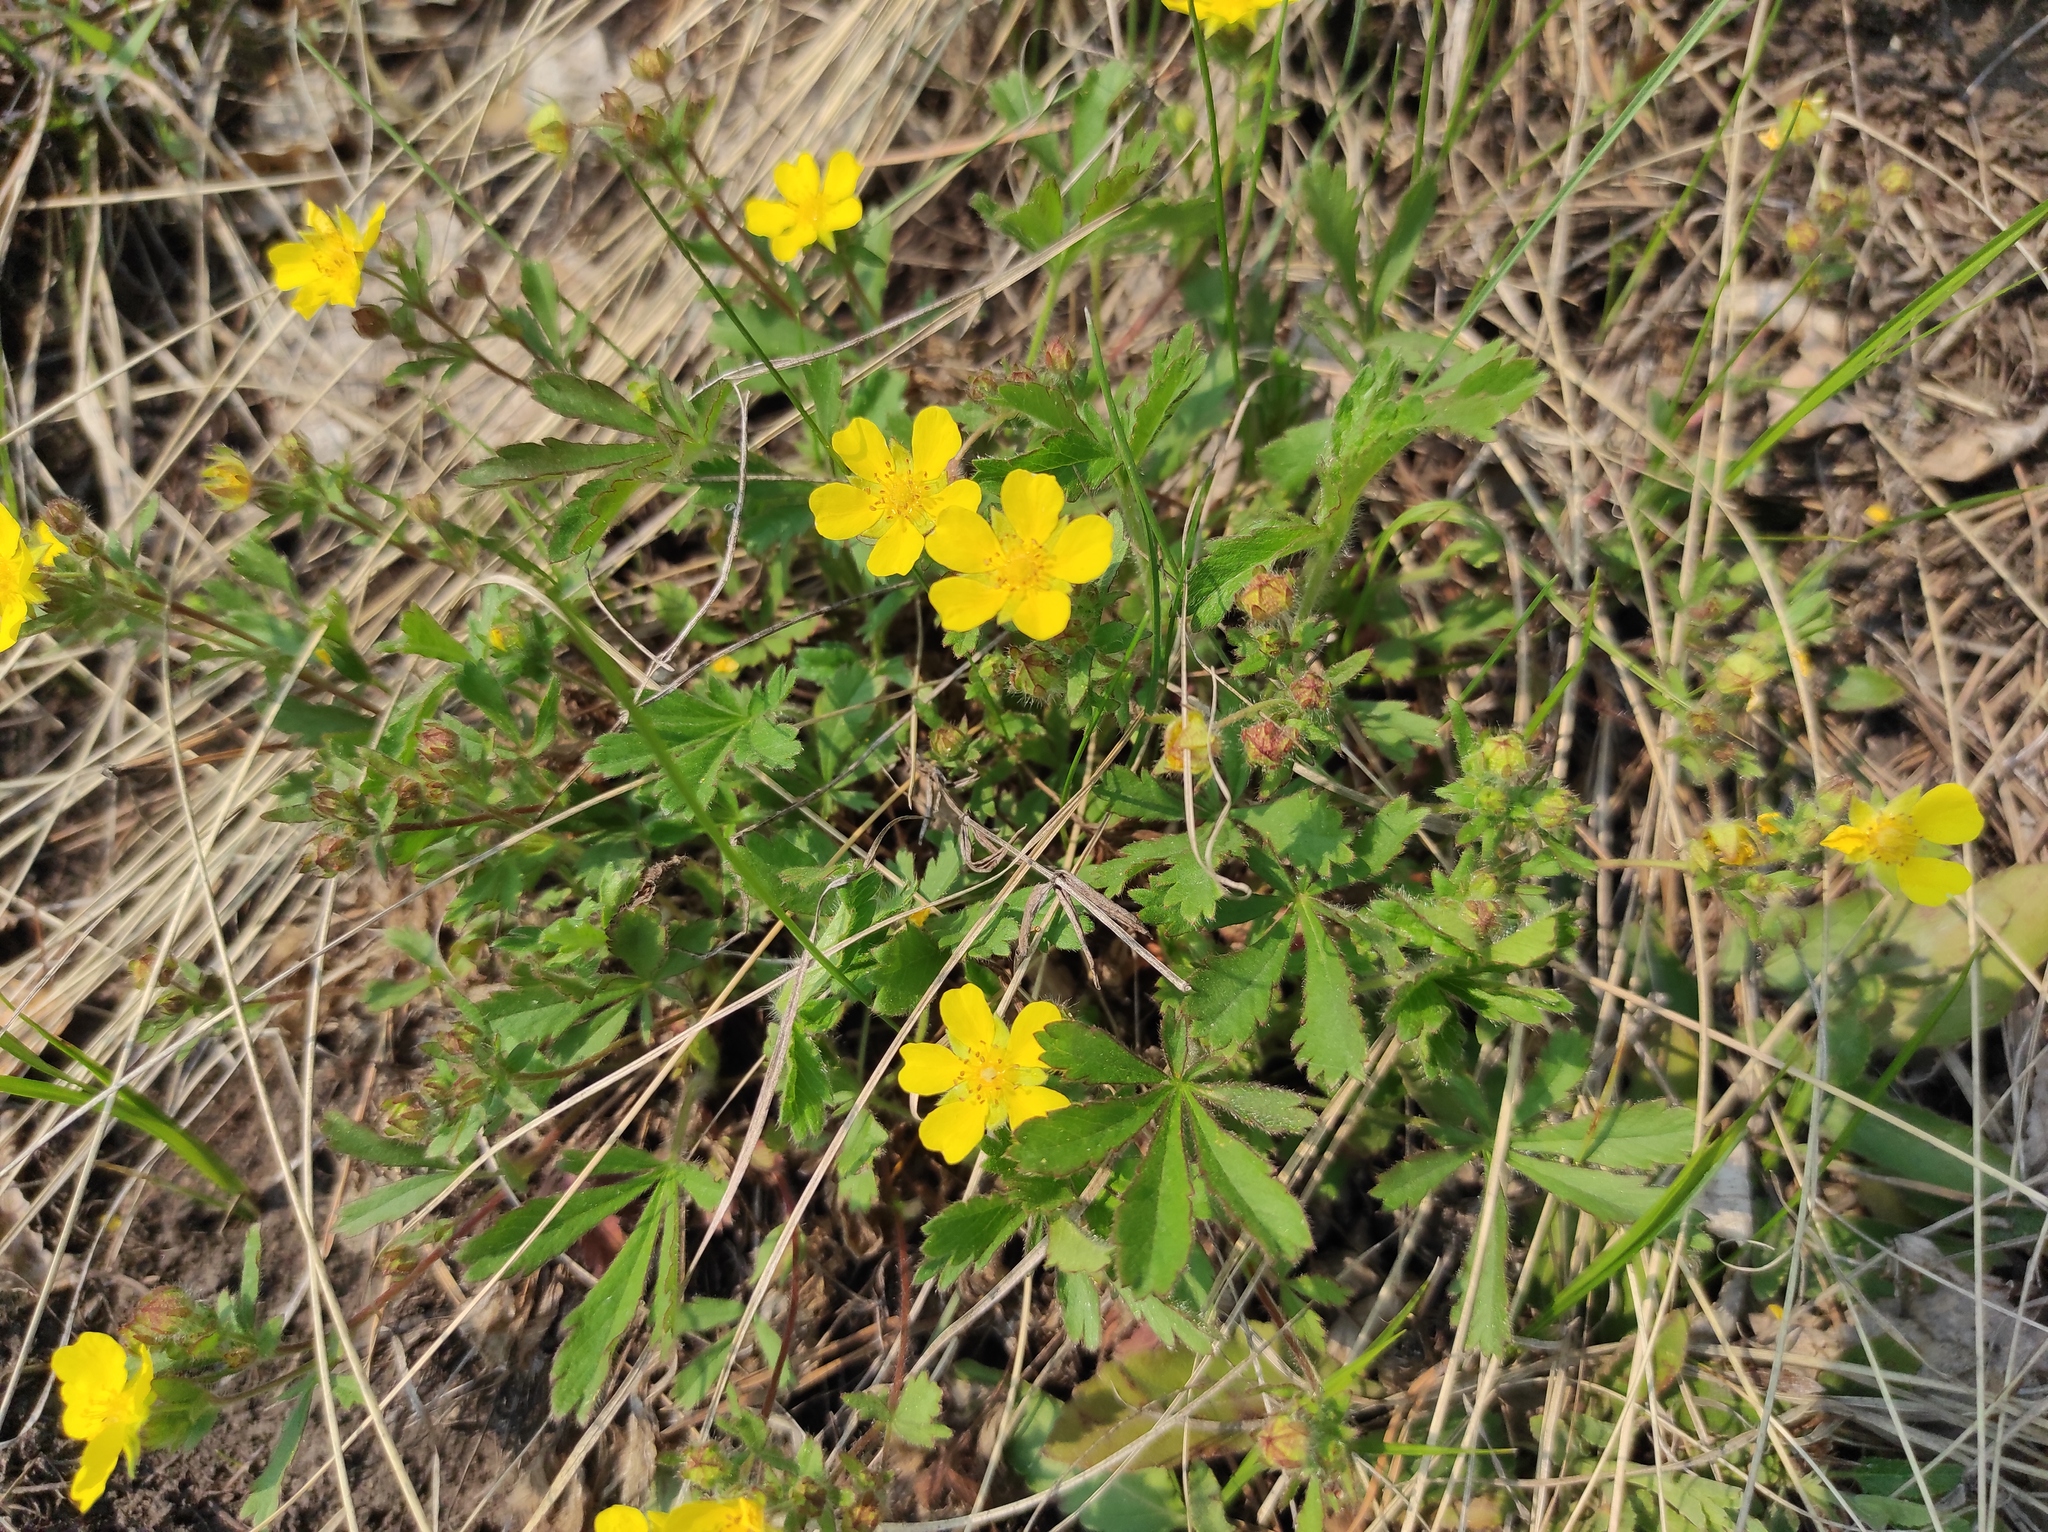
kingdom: Plantae
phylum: Tracheophyta
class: Magnoliopsida
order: Rosales
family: Rosaceae
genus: Potentilla
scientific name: Potentilla humifusa
